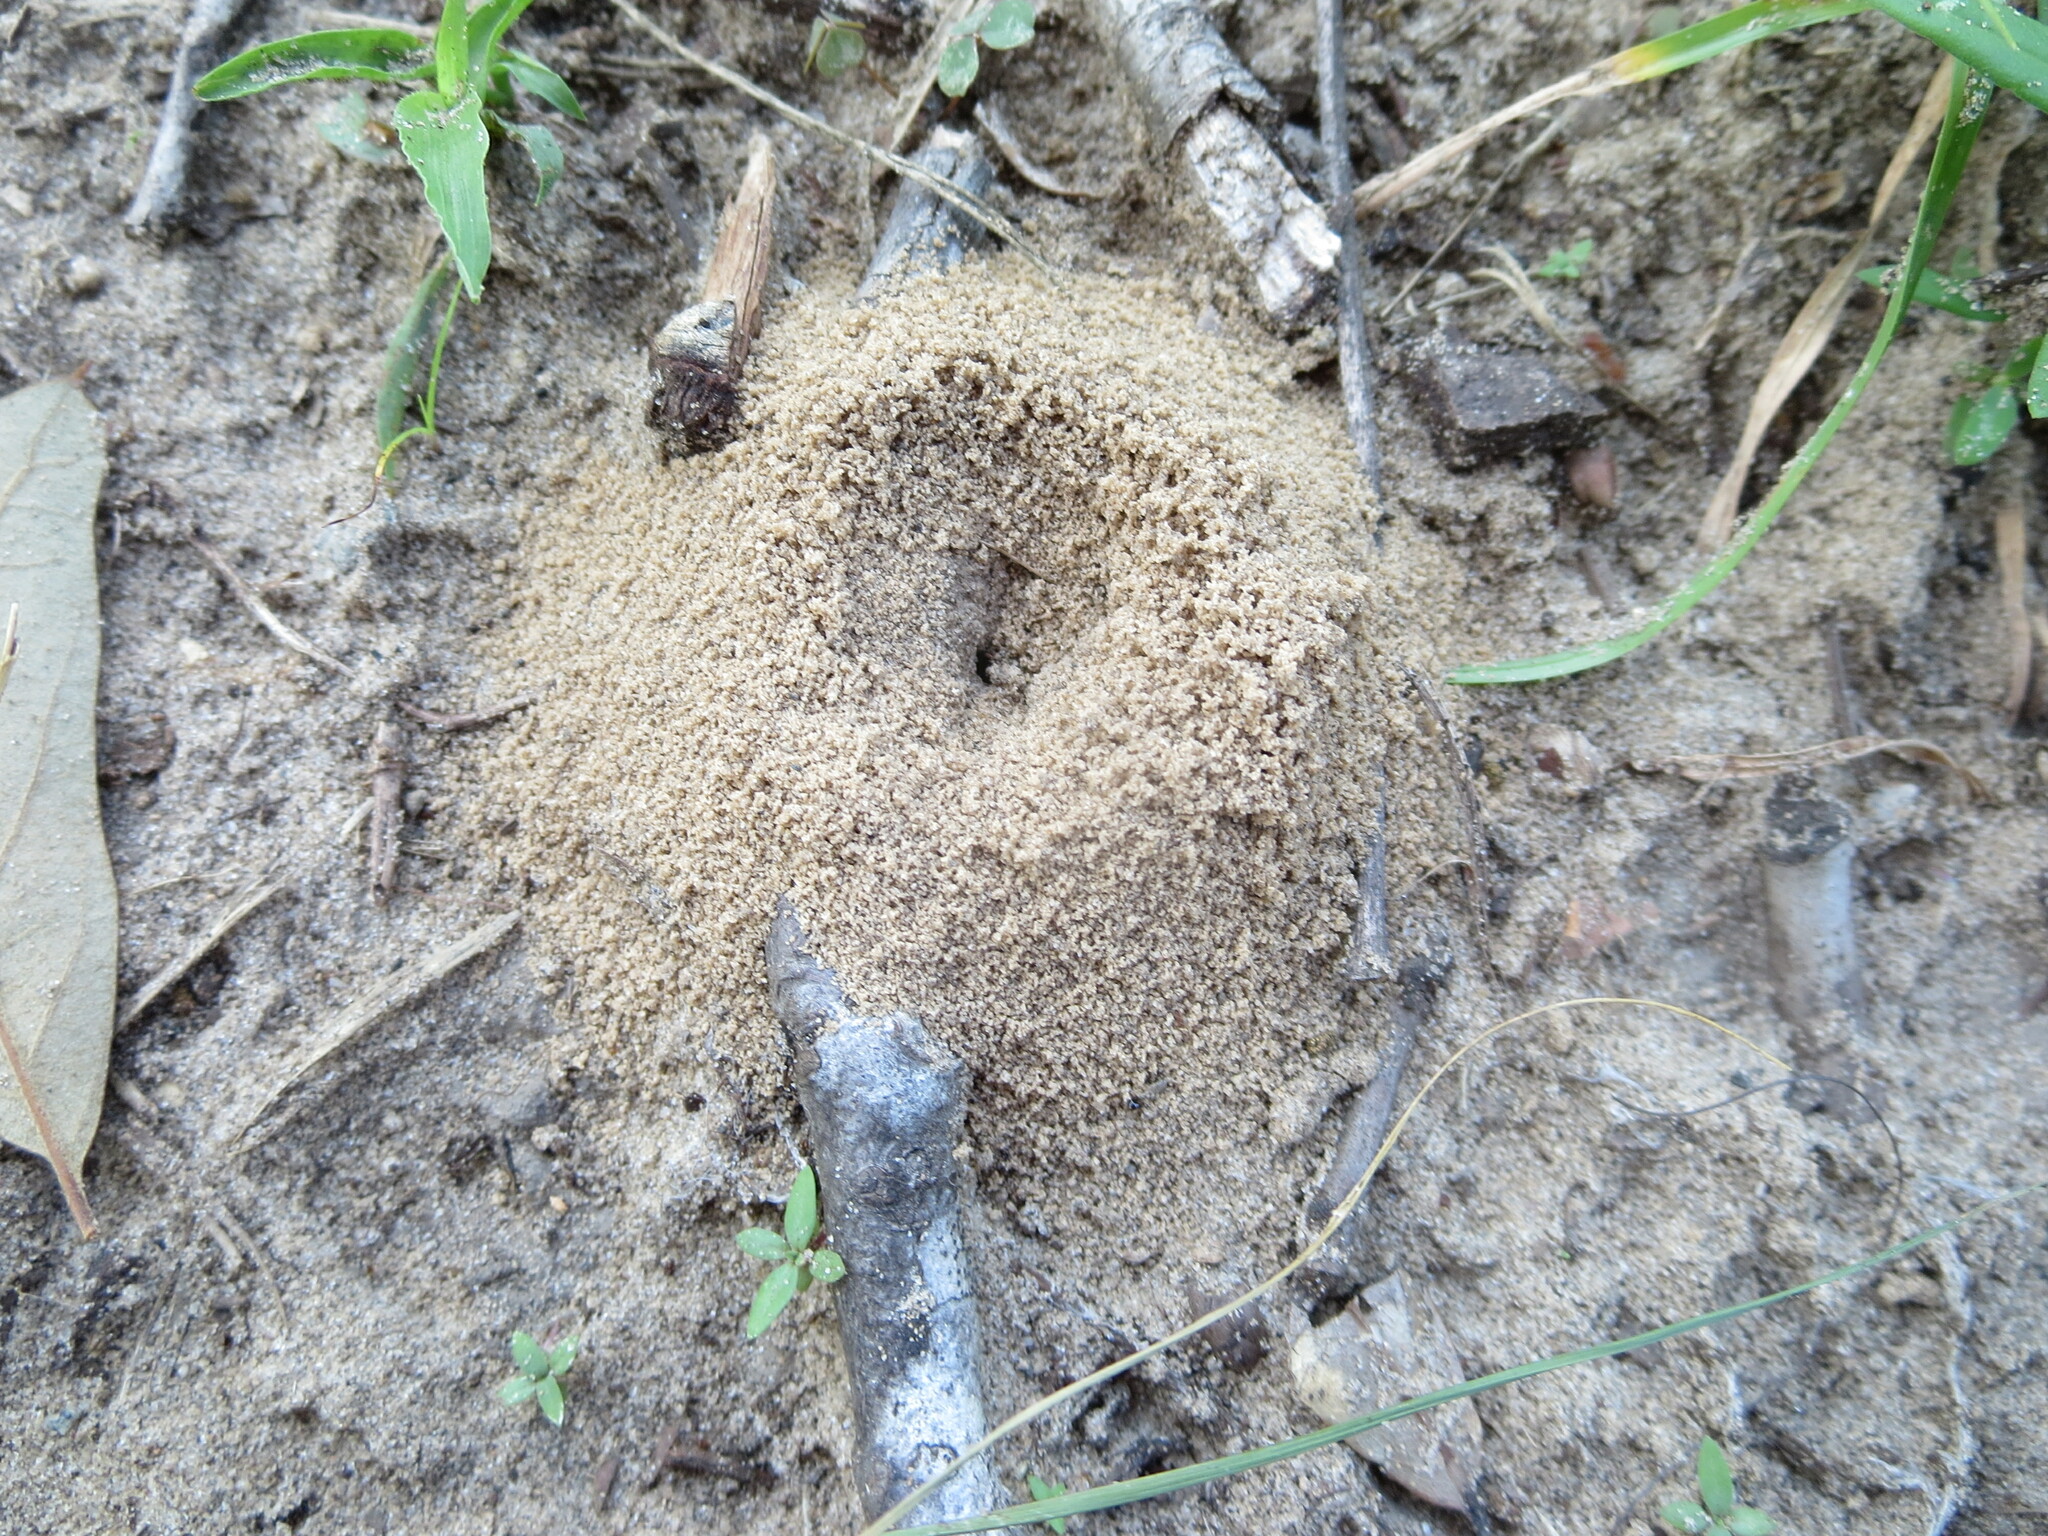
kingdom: Animalia
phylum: Arthropoda
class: Insecta
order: Hymenoptera
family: Formicidae
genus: Dorymyrmex
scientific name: Dorymyrmex bureni
